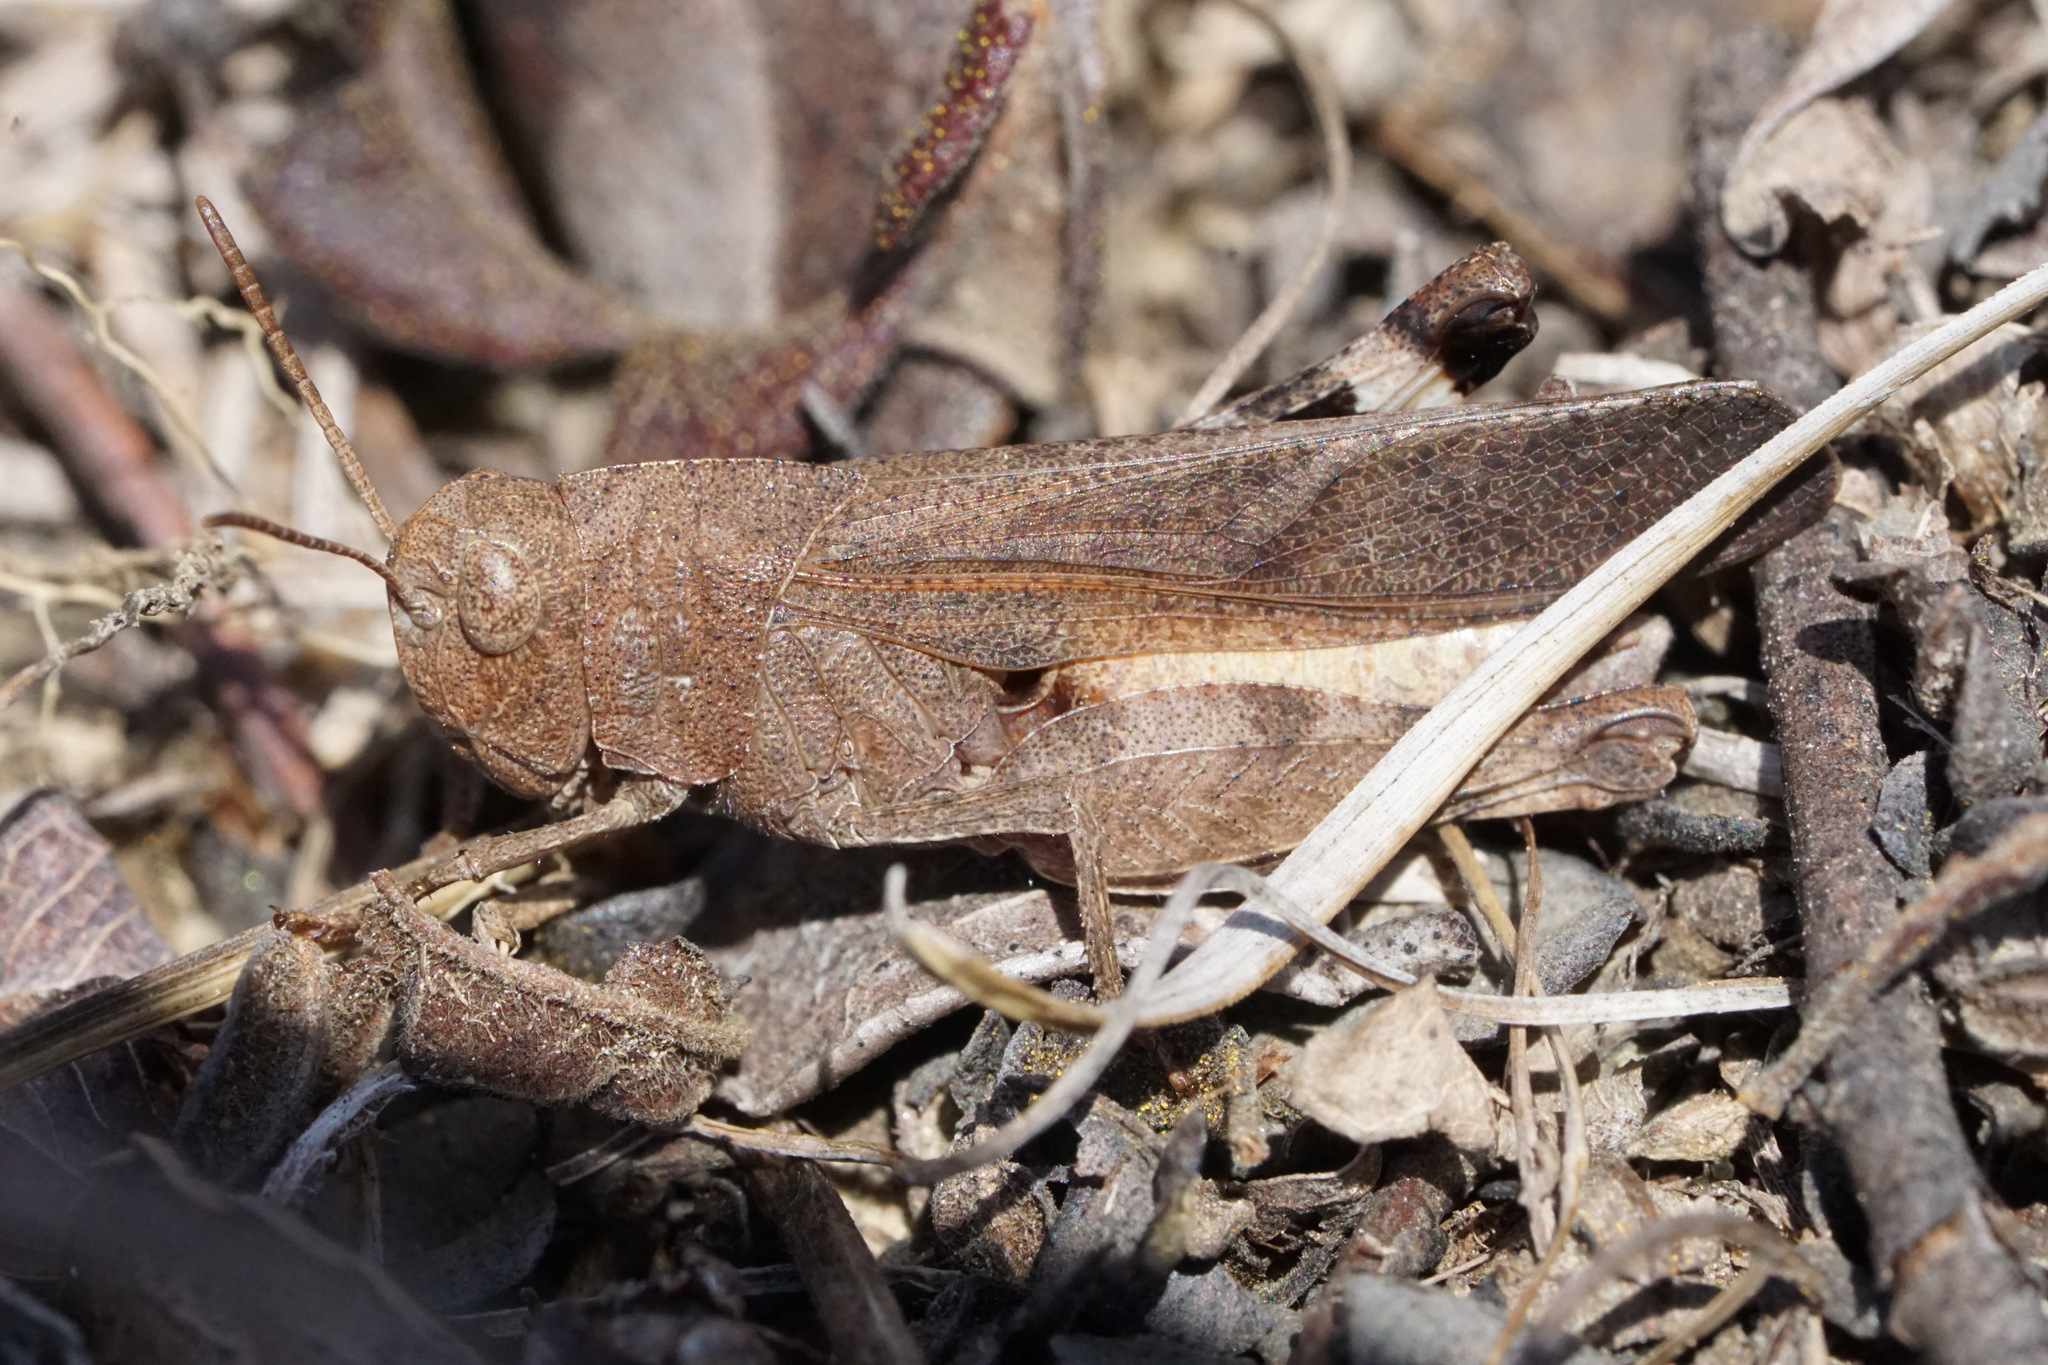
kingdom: Animalia
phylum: Arthropoda
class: Insecta
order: Orthoptera
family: Acrididae
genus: Arphia
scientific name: Arphia sulphurea
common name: Spring yellow-winged locust
